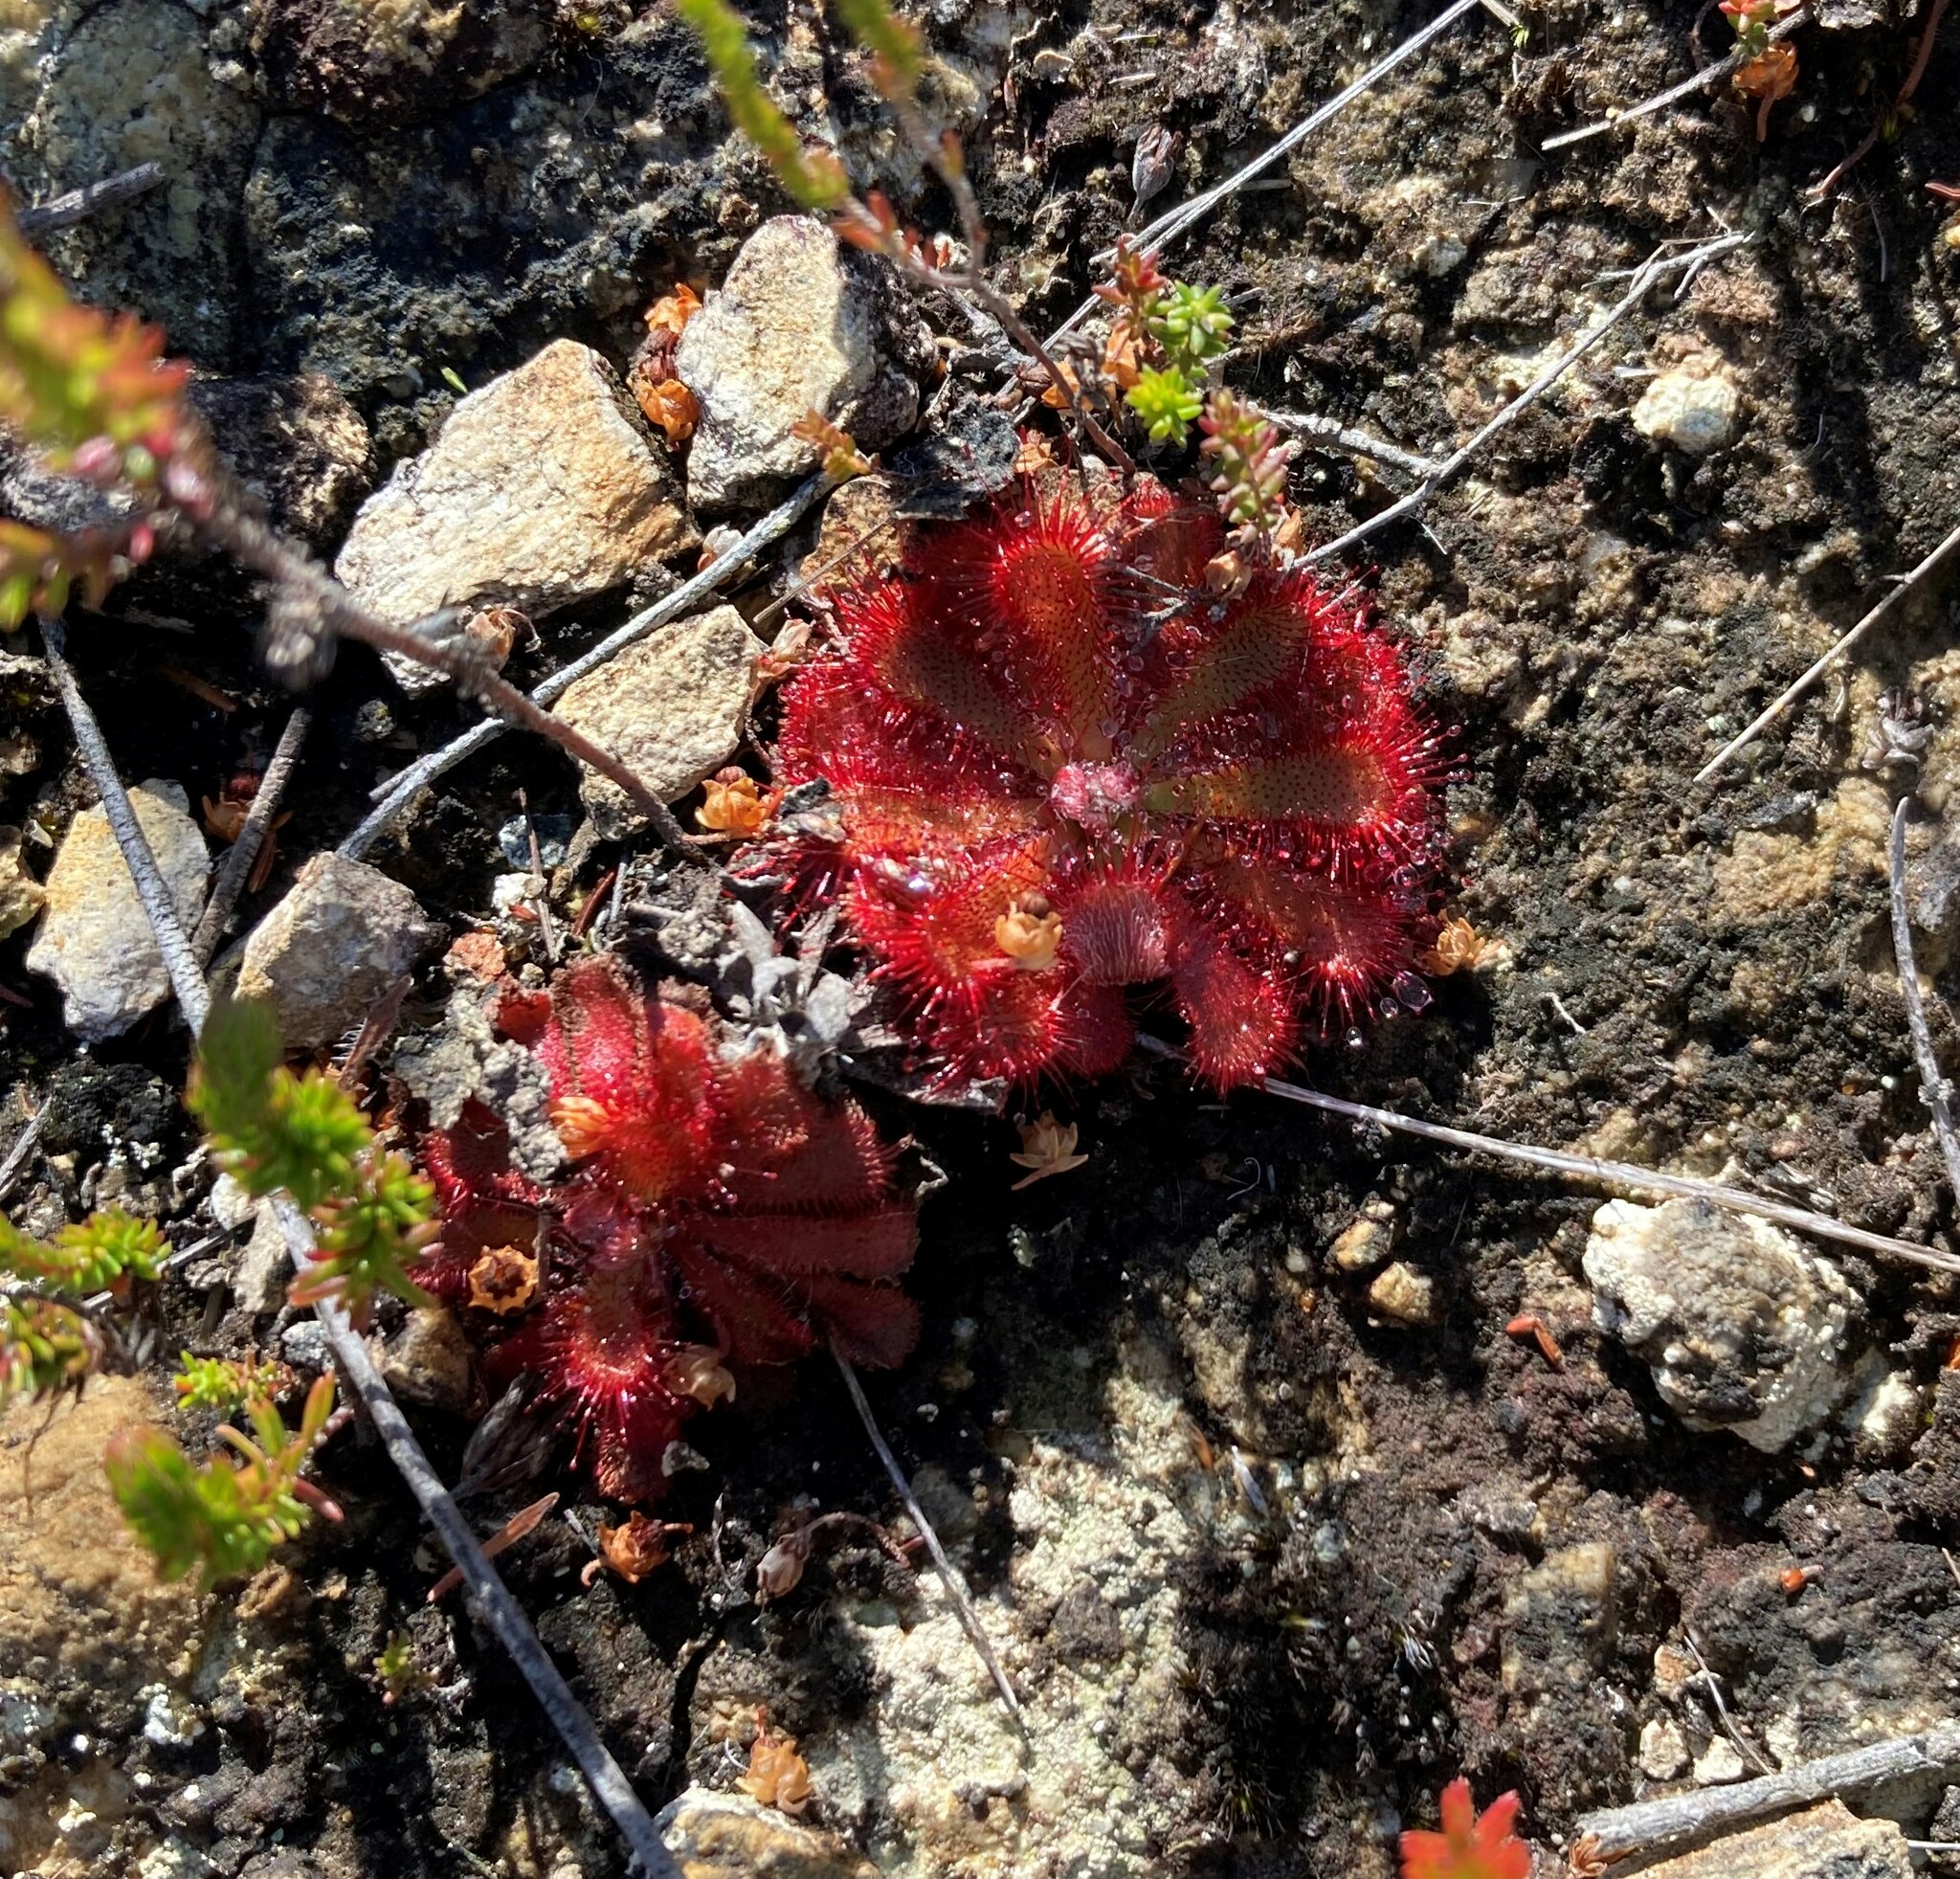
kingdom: Plantae
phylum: Tracheophyta
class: Magnoliopsida
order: Caryophyllales
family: Droseraceae
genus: Drosera
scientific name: Drosera aliciae
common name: Alice sundew
